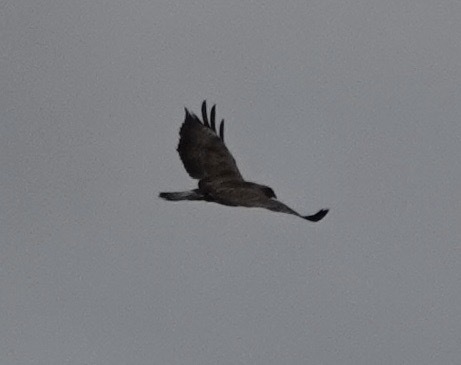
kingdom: Animalia
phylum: Chordata
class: Aves
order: Accipitriformes
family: Accipitridae
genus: Buteo
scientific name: Buteo buteo
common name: Common buzzard
